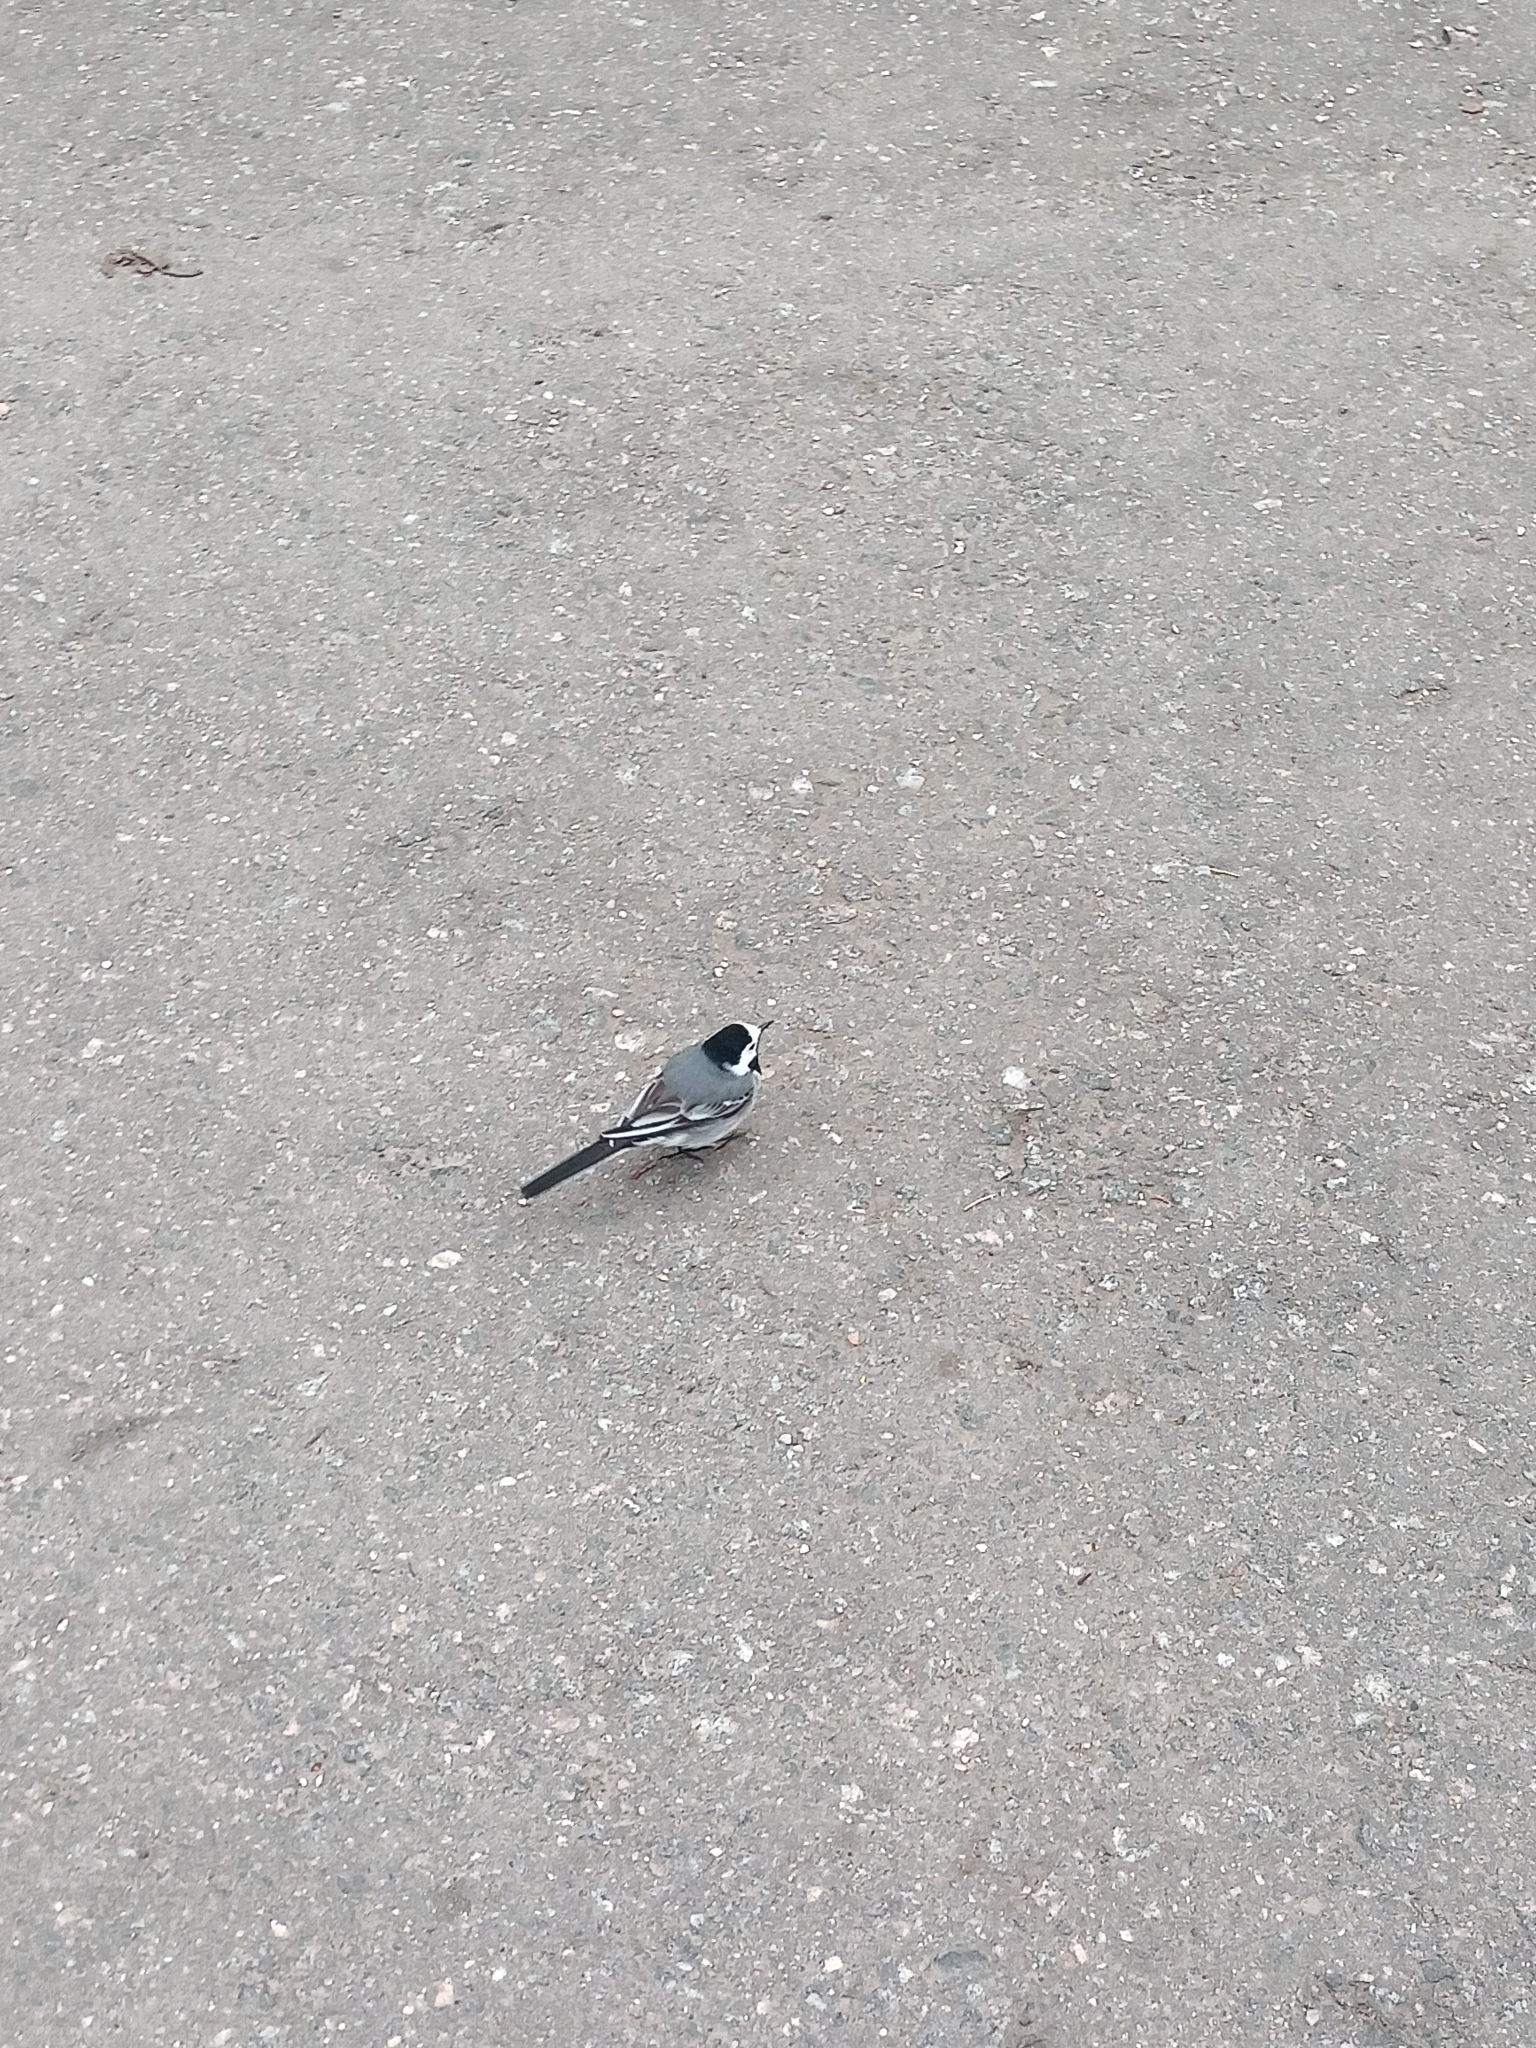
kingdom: Animalia
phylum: Chordata
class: Aves
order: Passeriformes
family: Motacillidae
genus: Motacilla
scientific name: Motacilla alba
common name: White wagtail
